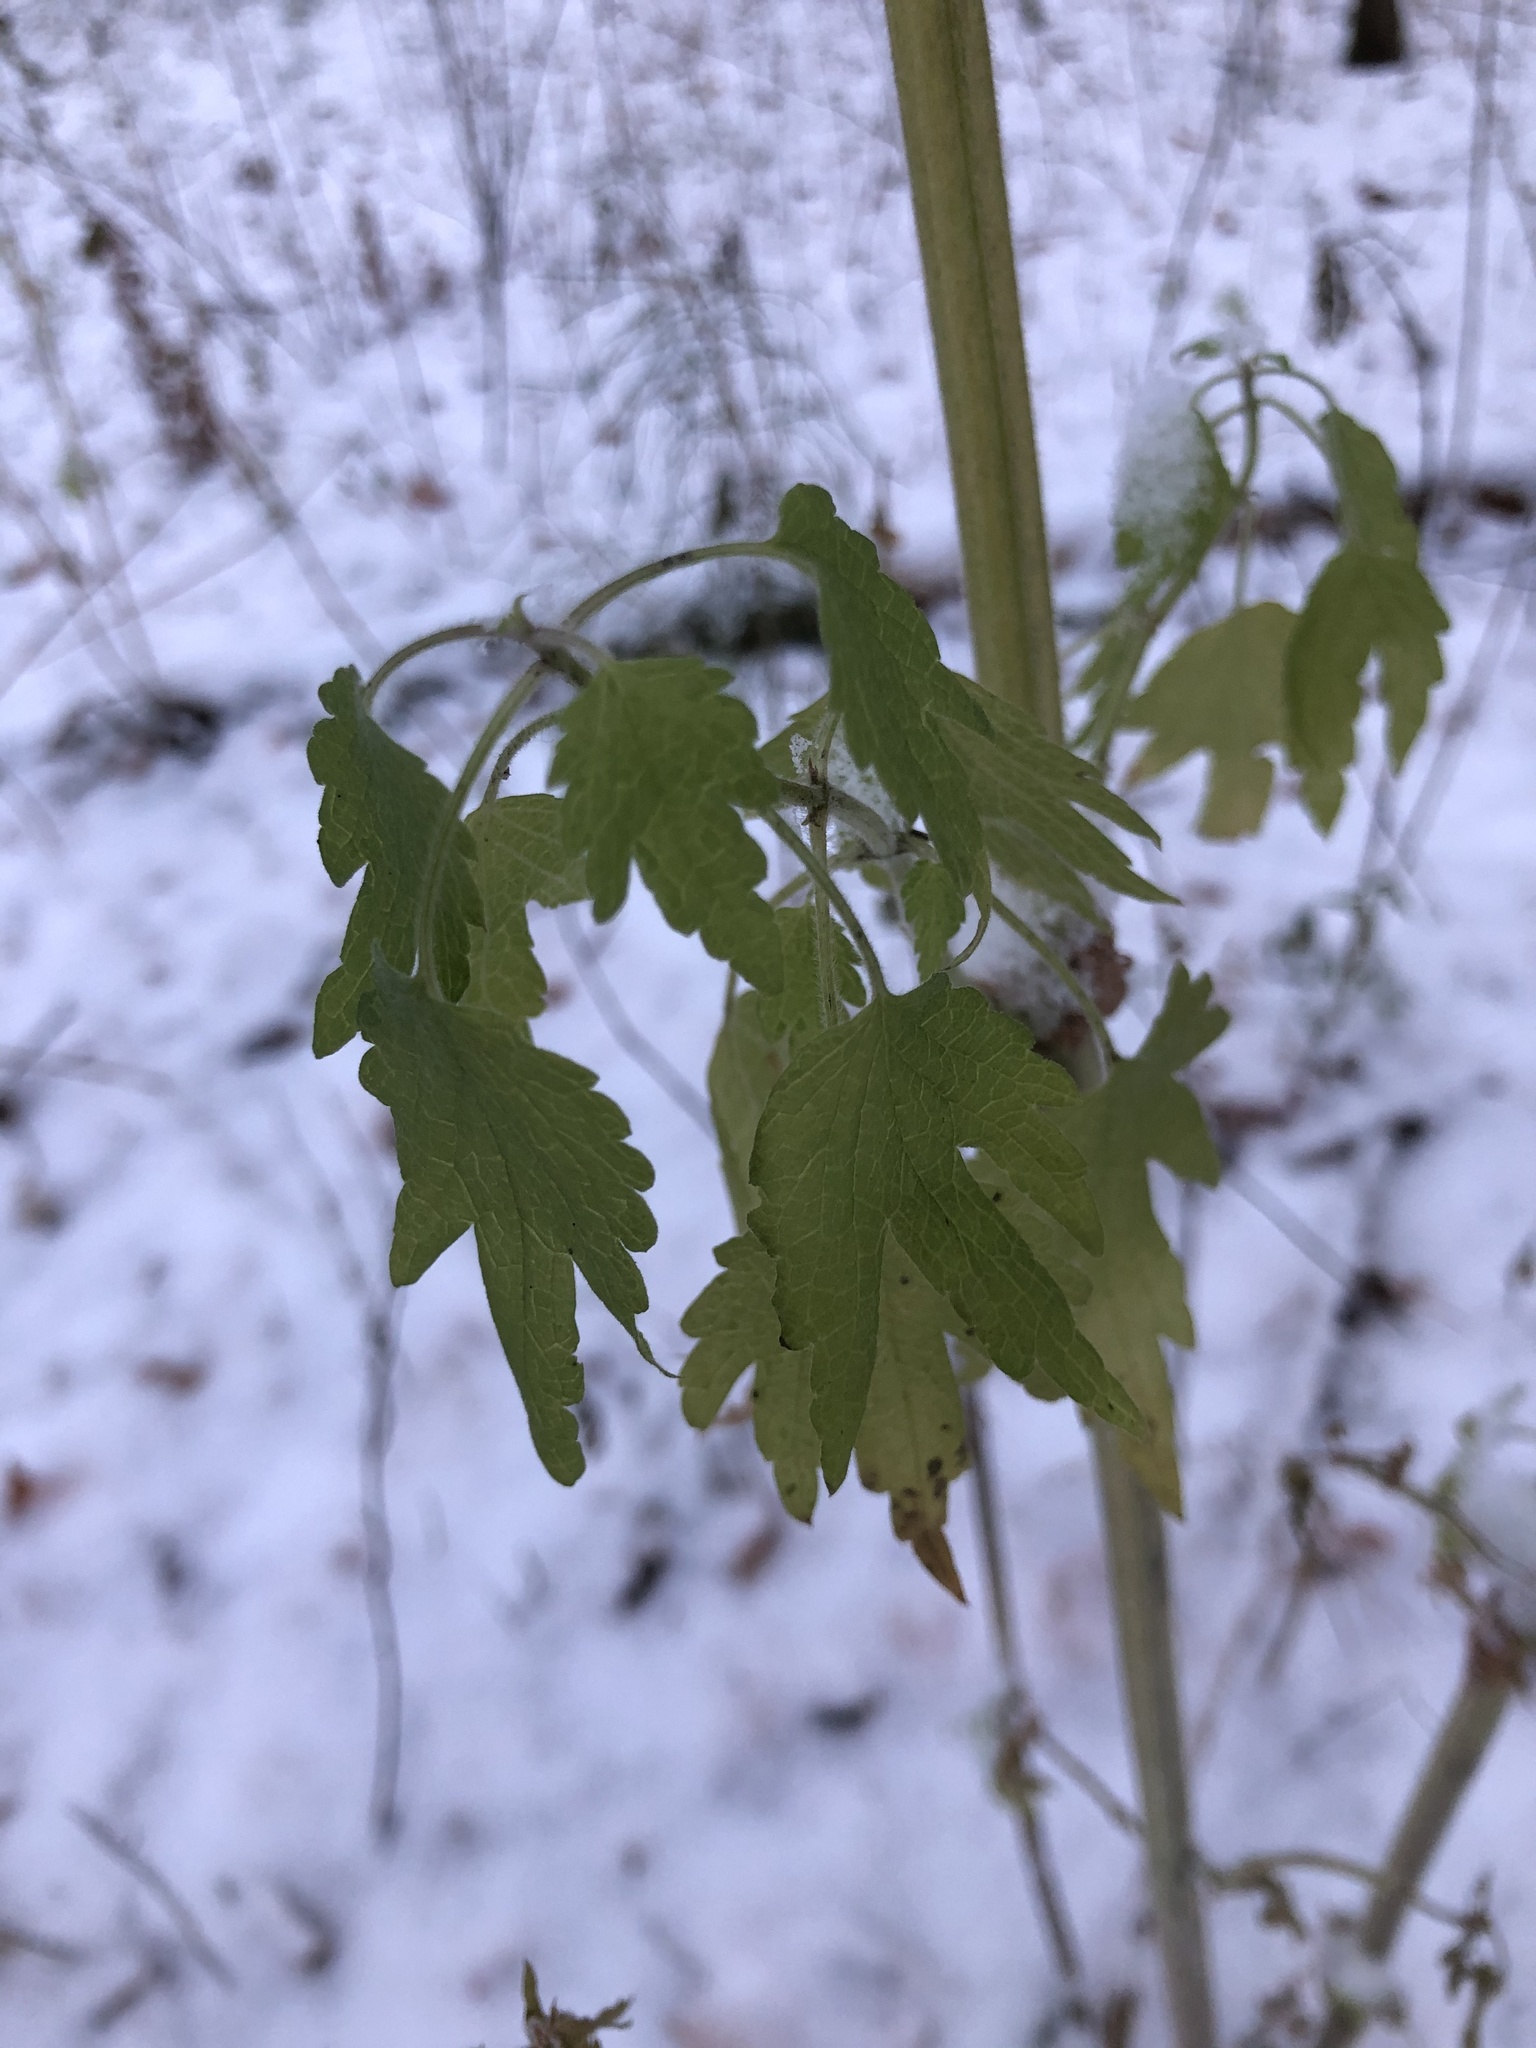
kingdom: Plantae
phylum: Tracheophyta
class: Magnoliopsida
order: Lamiales
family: Lamiaceae
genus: Leonurus
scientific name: Leonurus quinquelobatus
